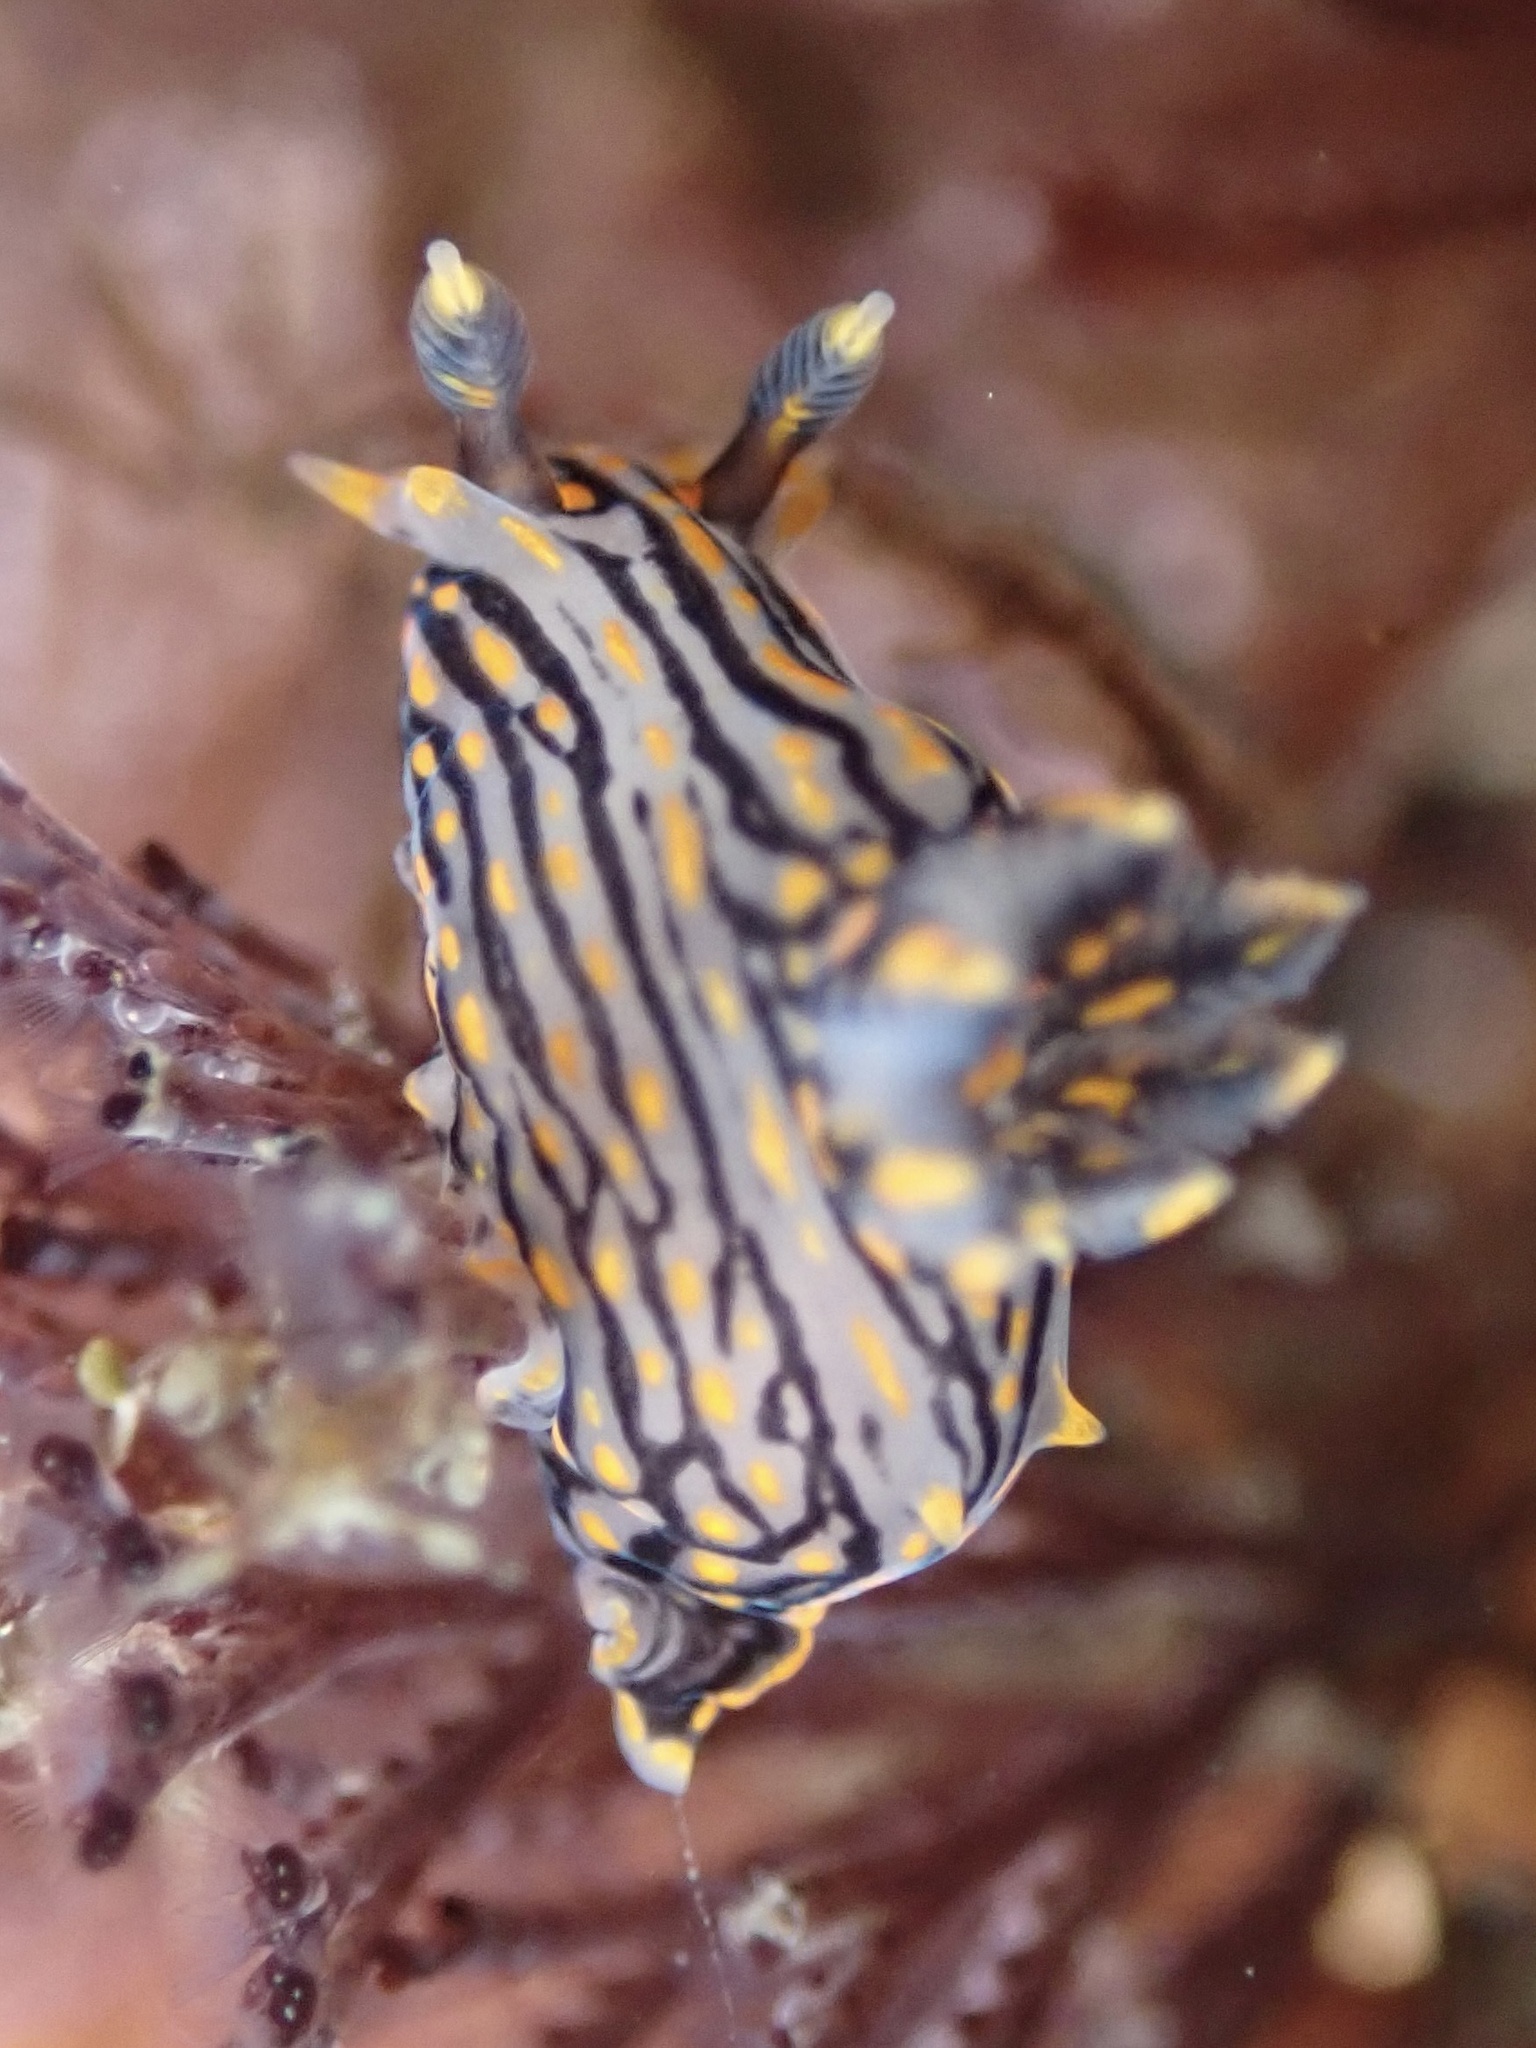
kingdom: Animalia
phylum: Mollusca
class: Gastropoda
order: Nudibranchia
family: Polyceridae
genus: Polycera
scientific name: Polycera atra
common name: Orange-spike polycera
